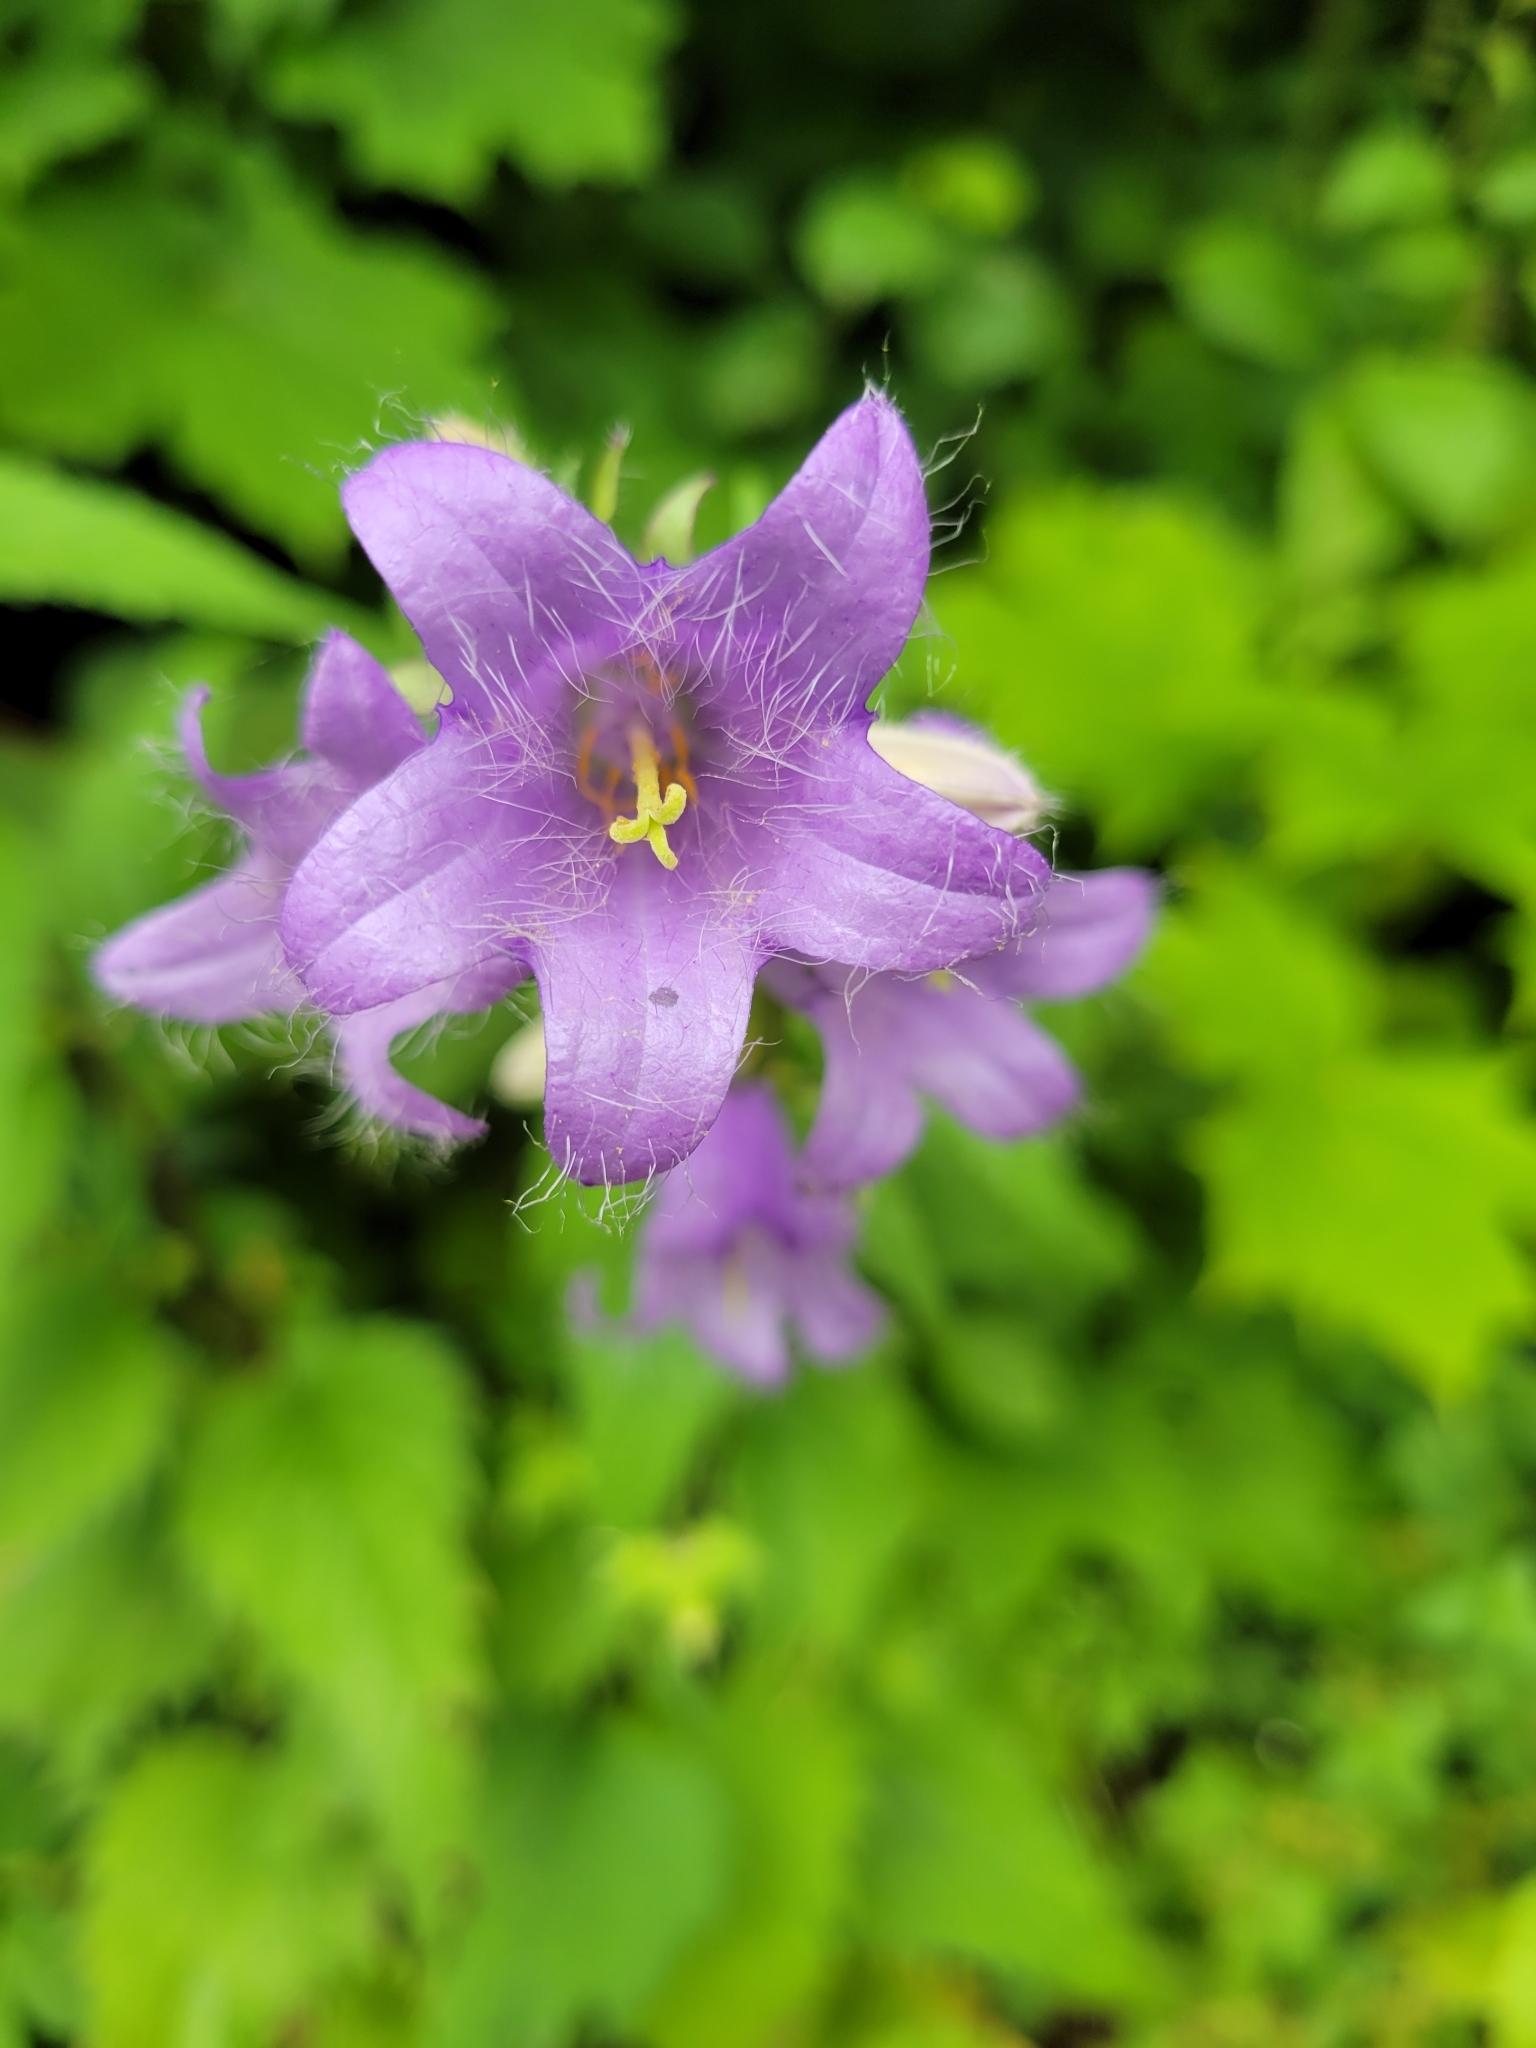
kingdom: Plantae
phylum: Tracheophyta
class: Magnoliopsida
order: Asterales
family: Campanulaceae
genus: Campanula
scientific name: Campanula trachelium
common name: Nettle-leaved bellflower
